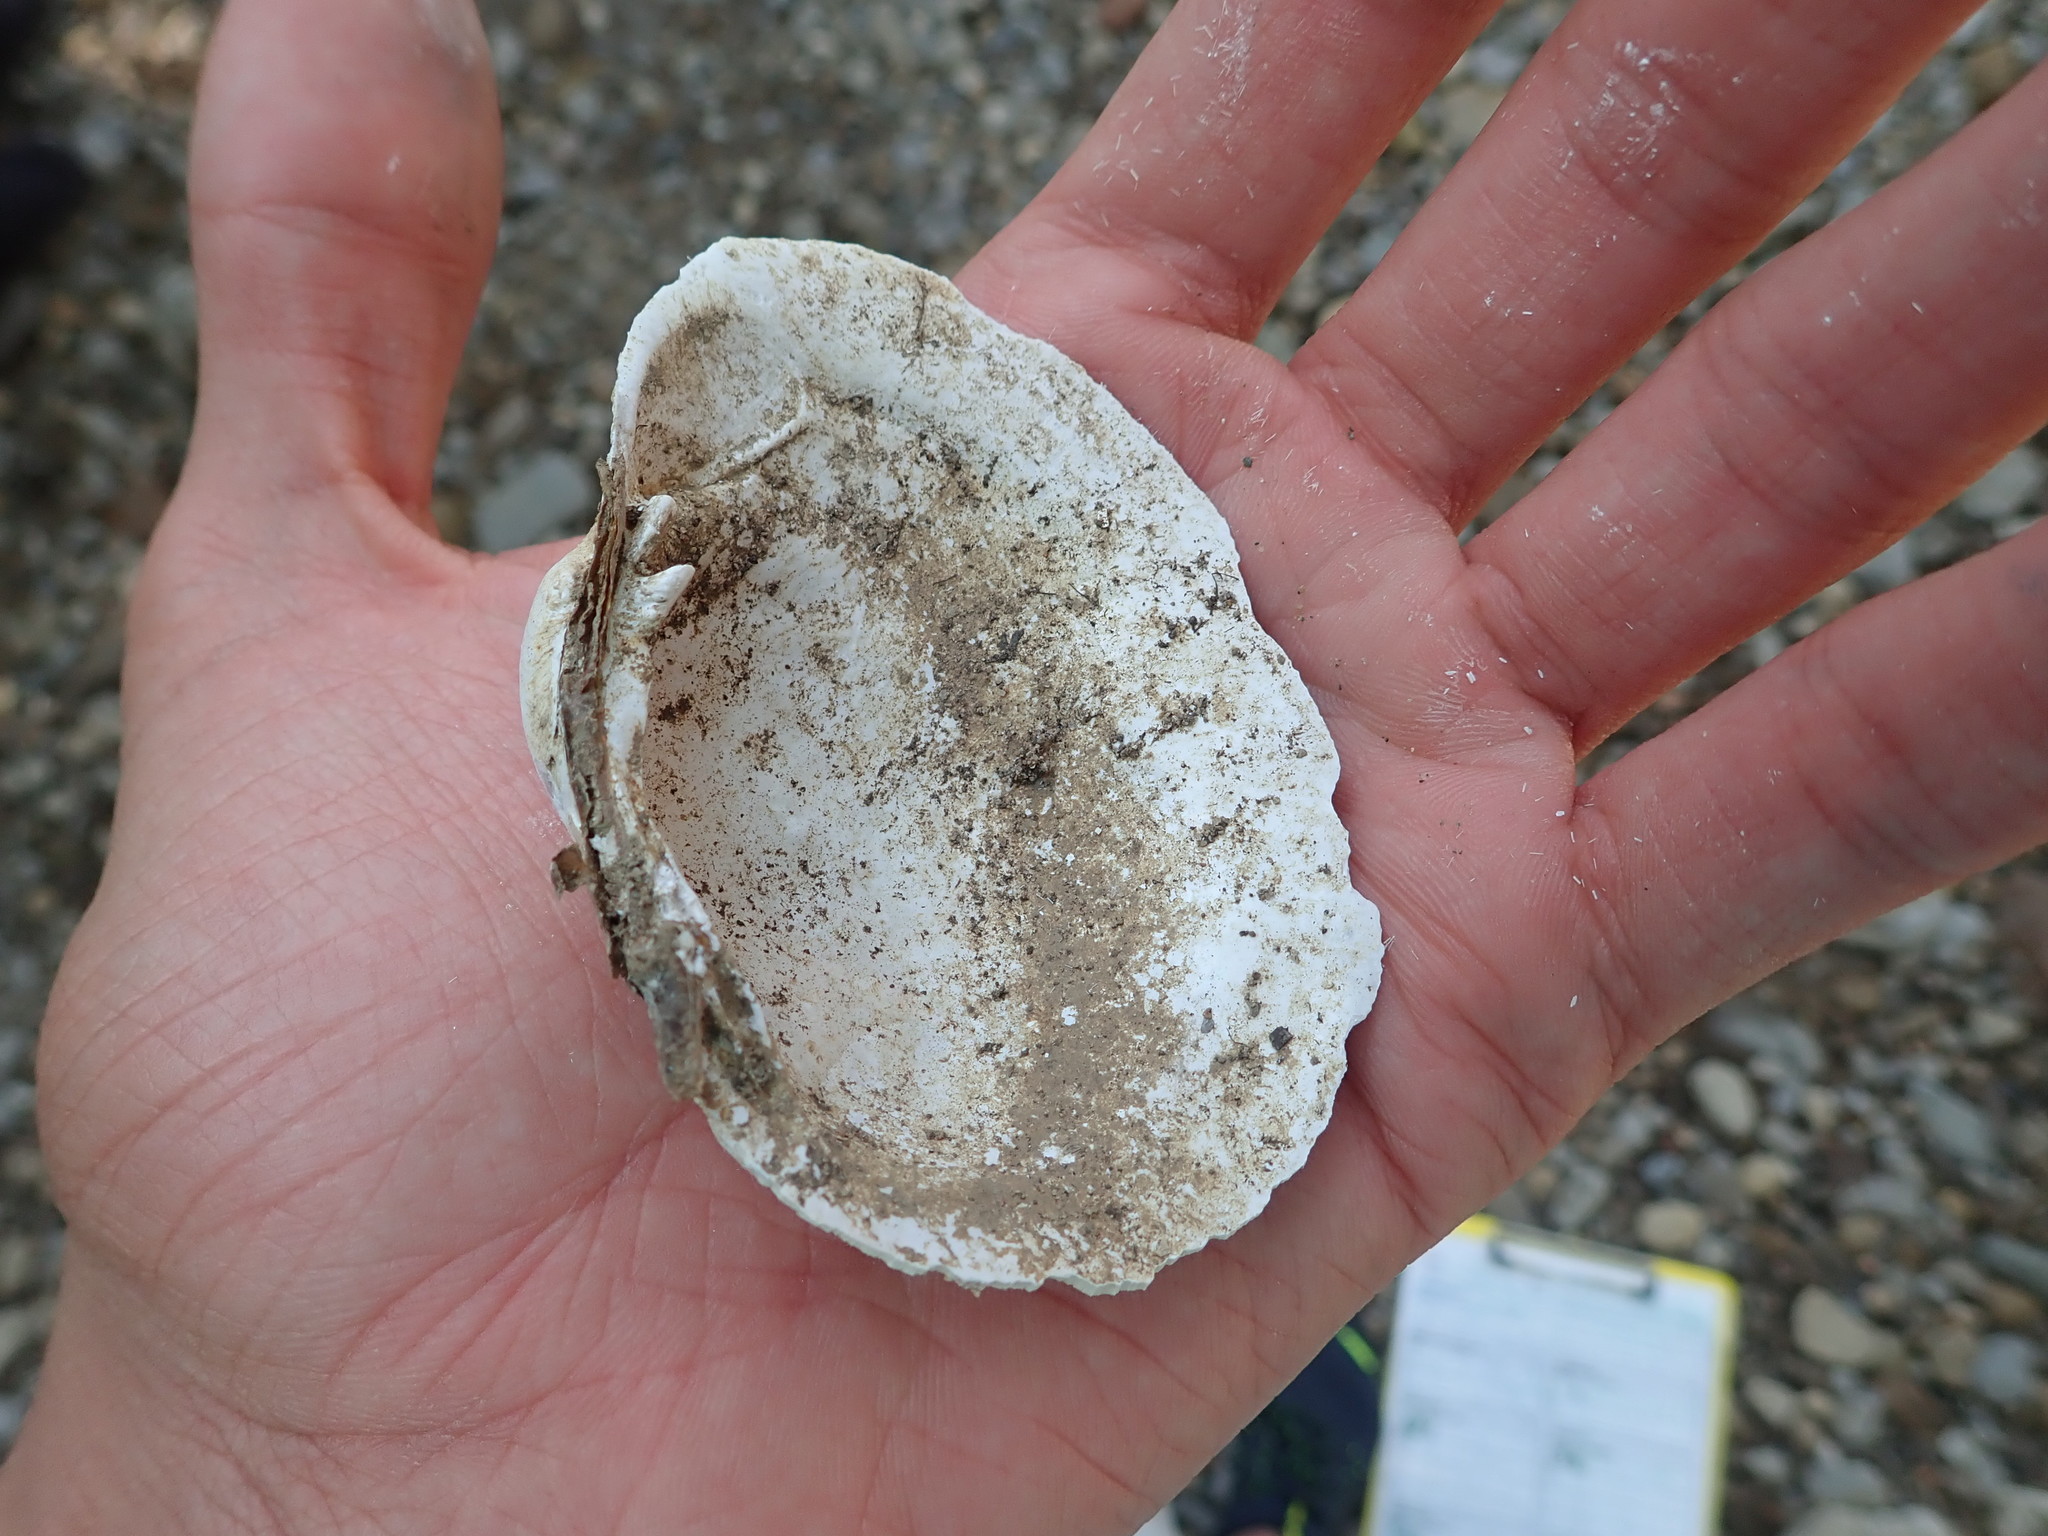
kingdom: Animalia
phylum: Mollusca
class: Bivalvia
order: Unionida
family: Unionidae
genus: Lampsilis
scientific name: Lampsilis cardium
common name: Plain pocketbook
